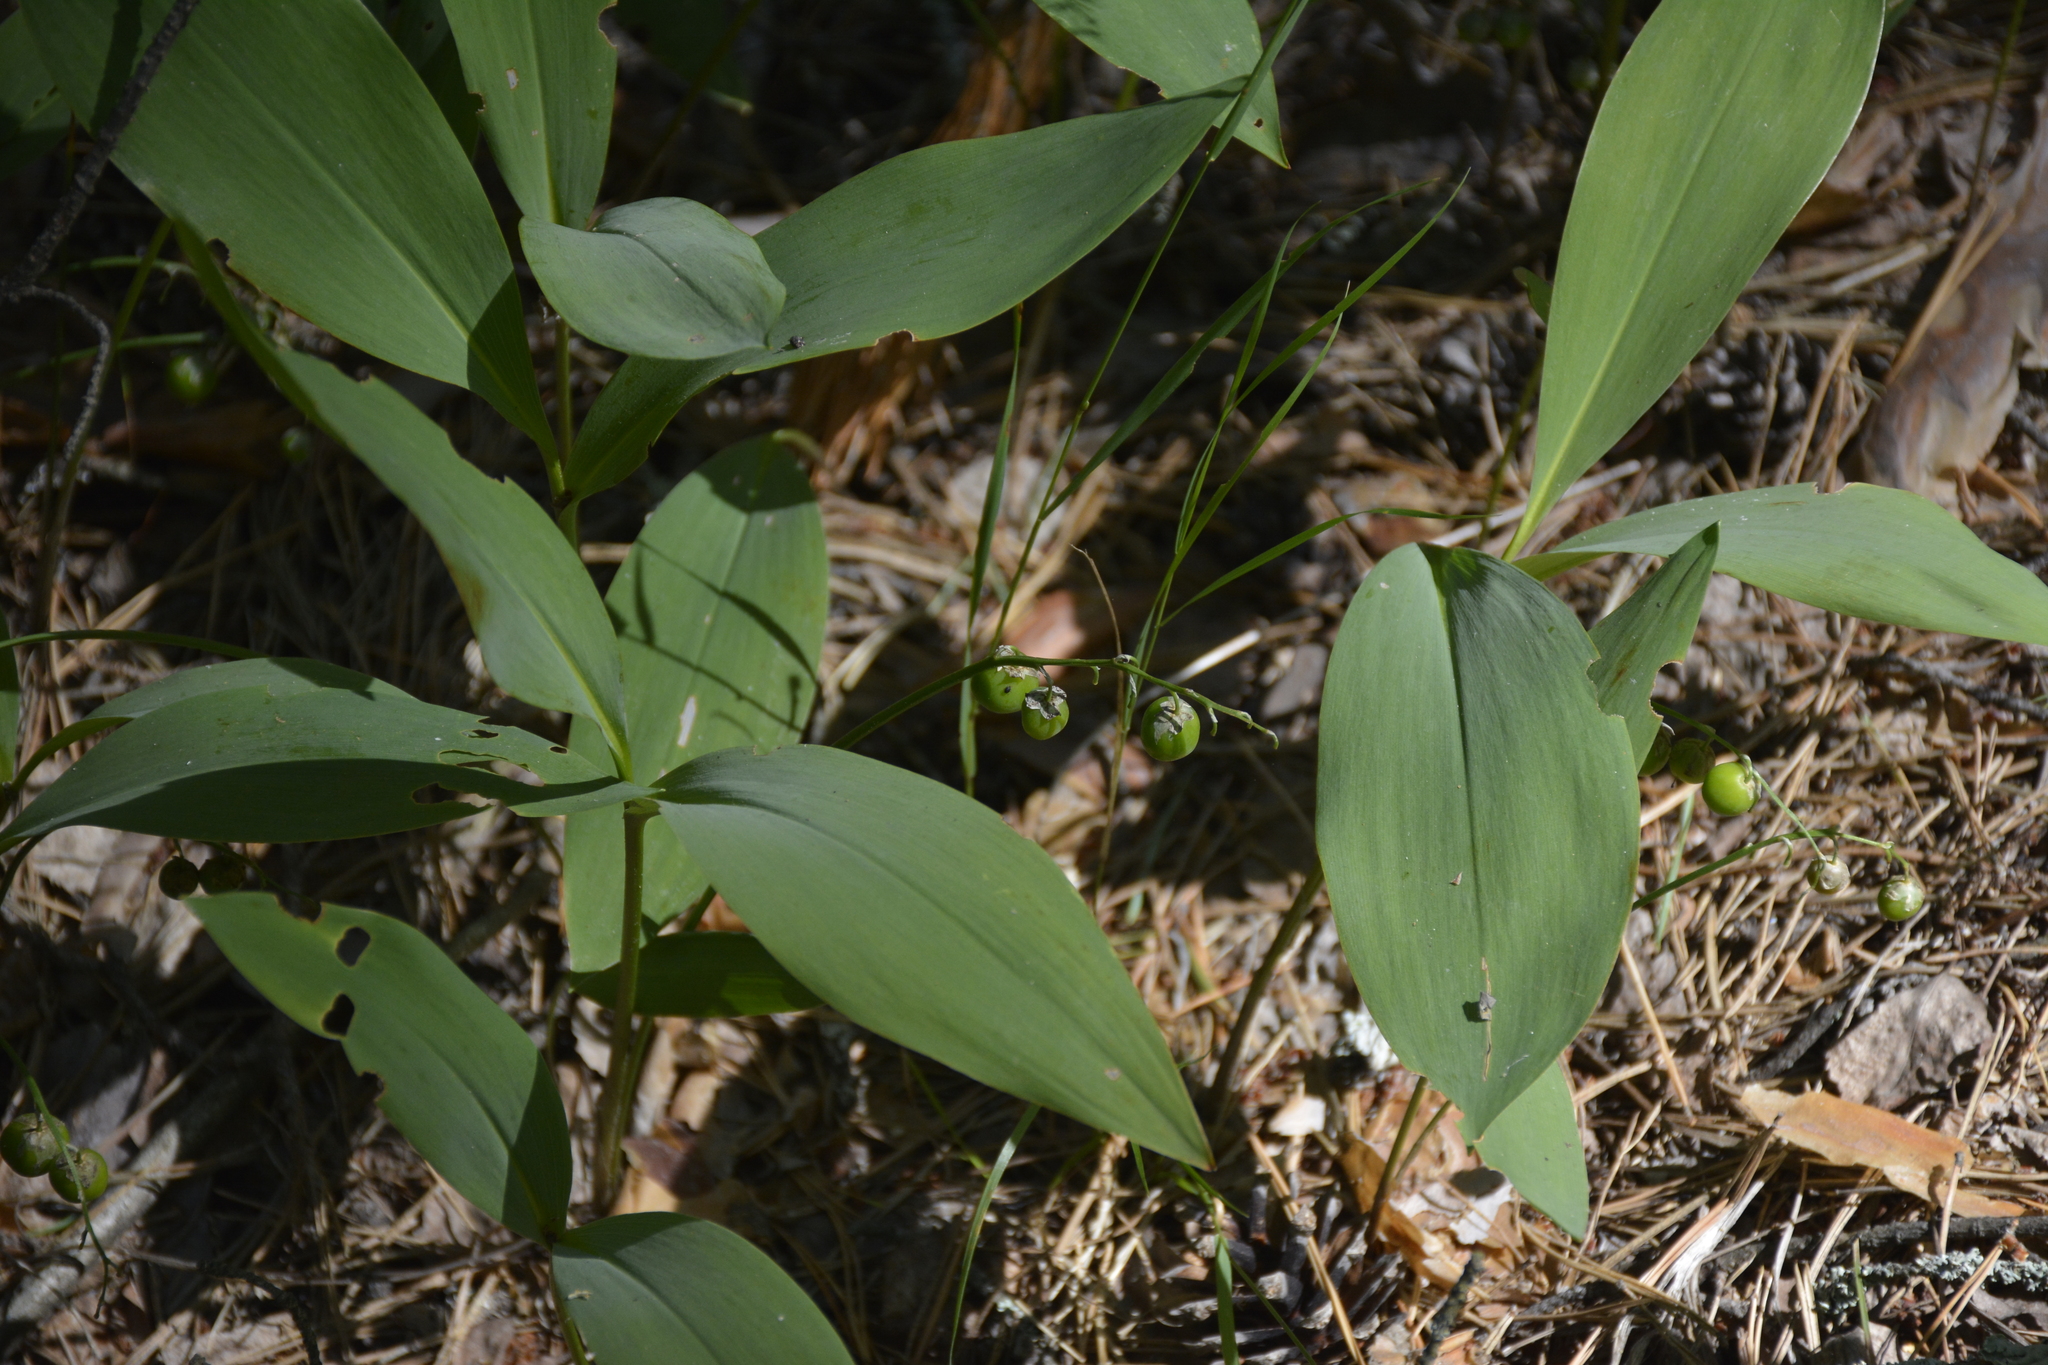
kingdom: Plantae
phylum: Tracheophyta
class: Liliopsida
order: Asparagales
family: Asparagaceae
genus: Convallaria
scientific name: Convallaria majalis
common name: Lily-of-the-valley
